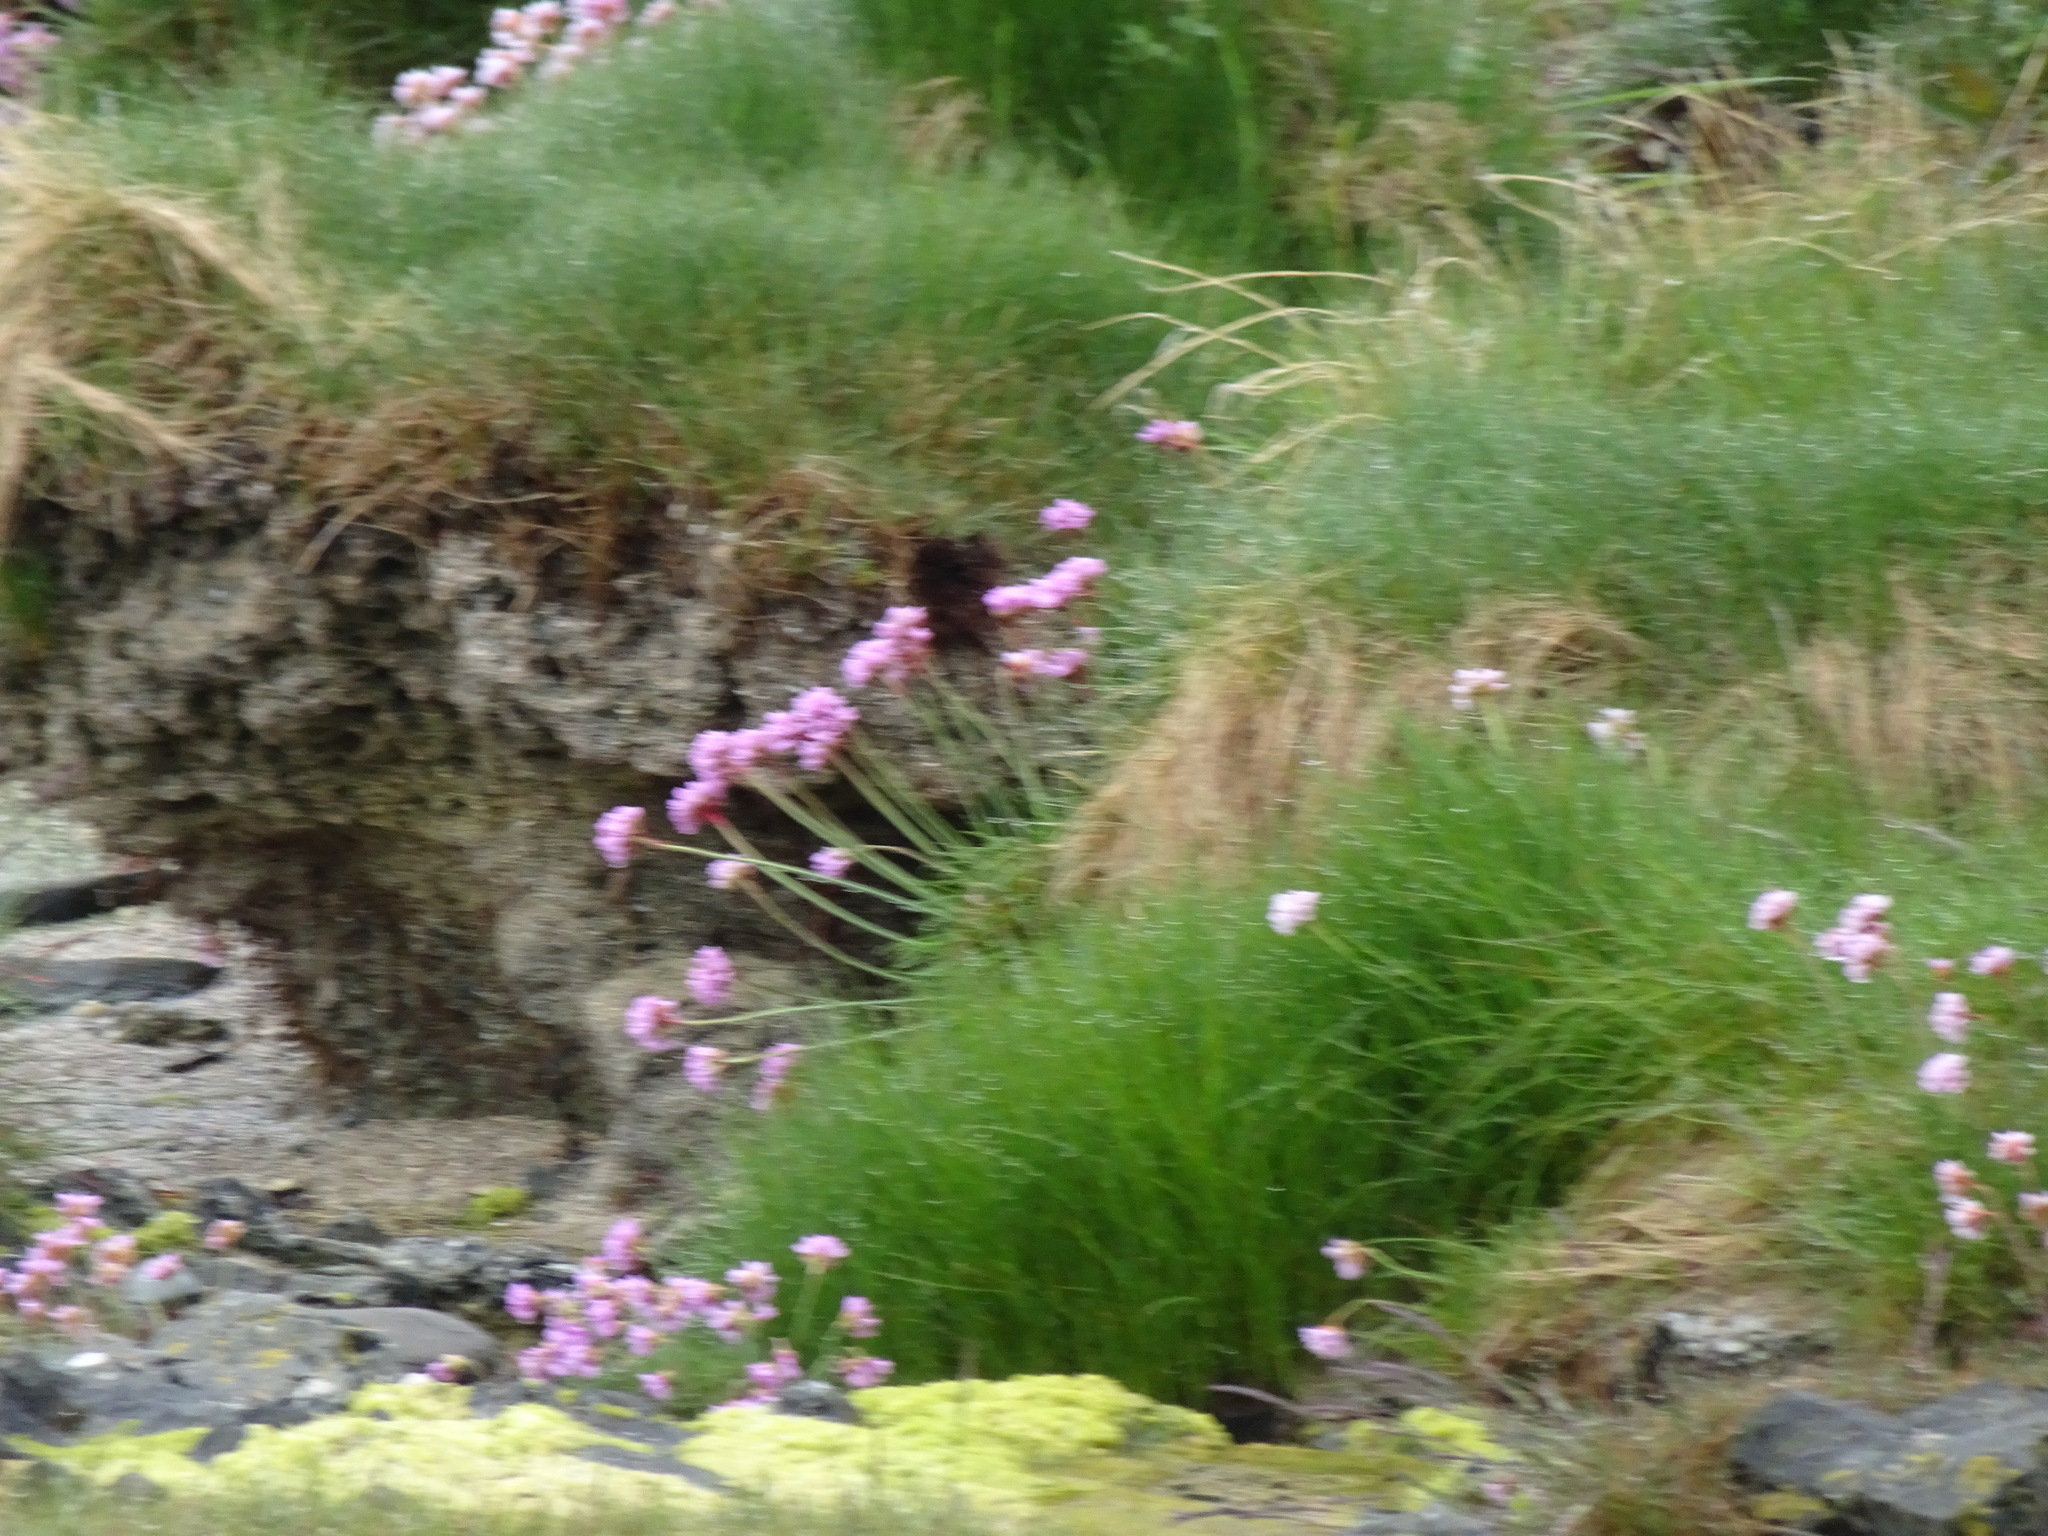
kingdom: Plantae
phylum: Tracheophyta
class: Magnoliopsida
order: Caryophyllales
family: Plumbaginaceae
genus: Armeria
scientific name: Armeria maritima
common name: Thrift
